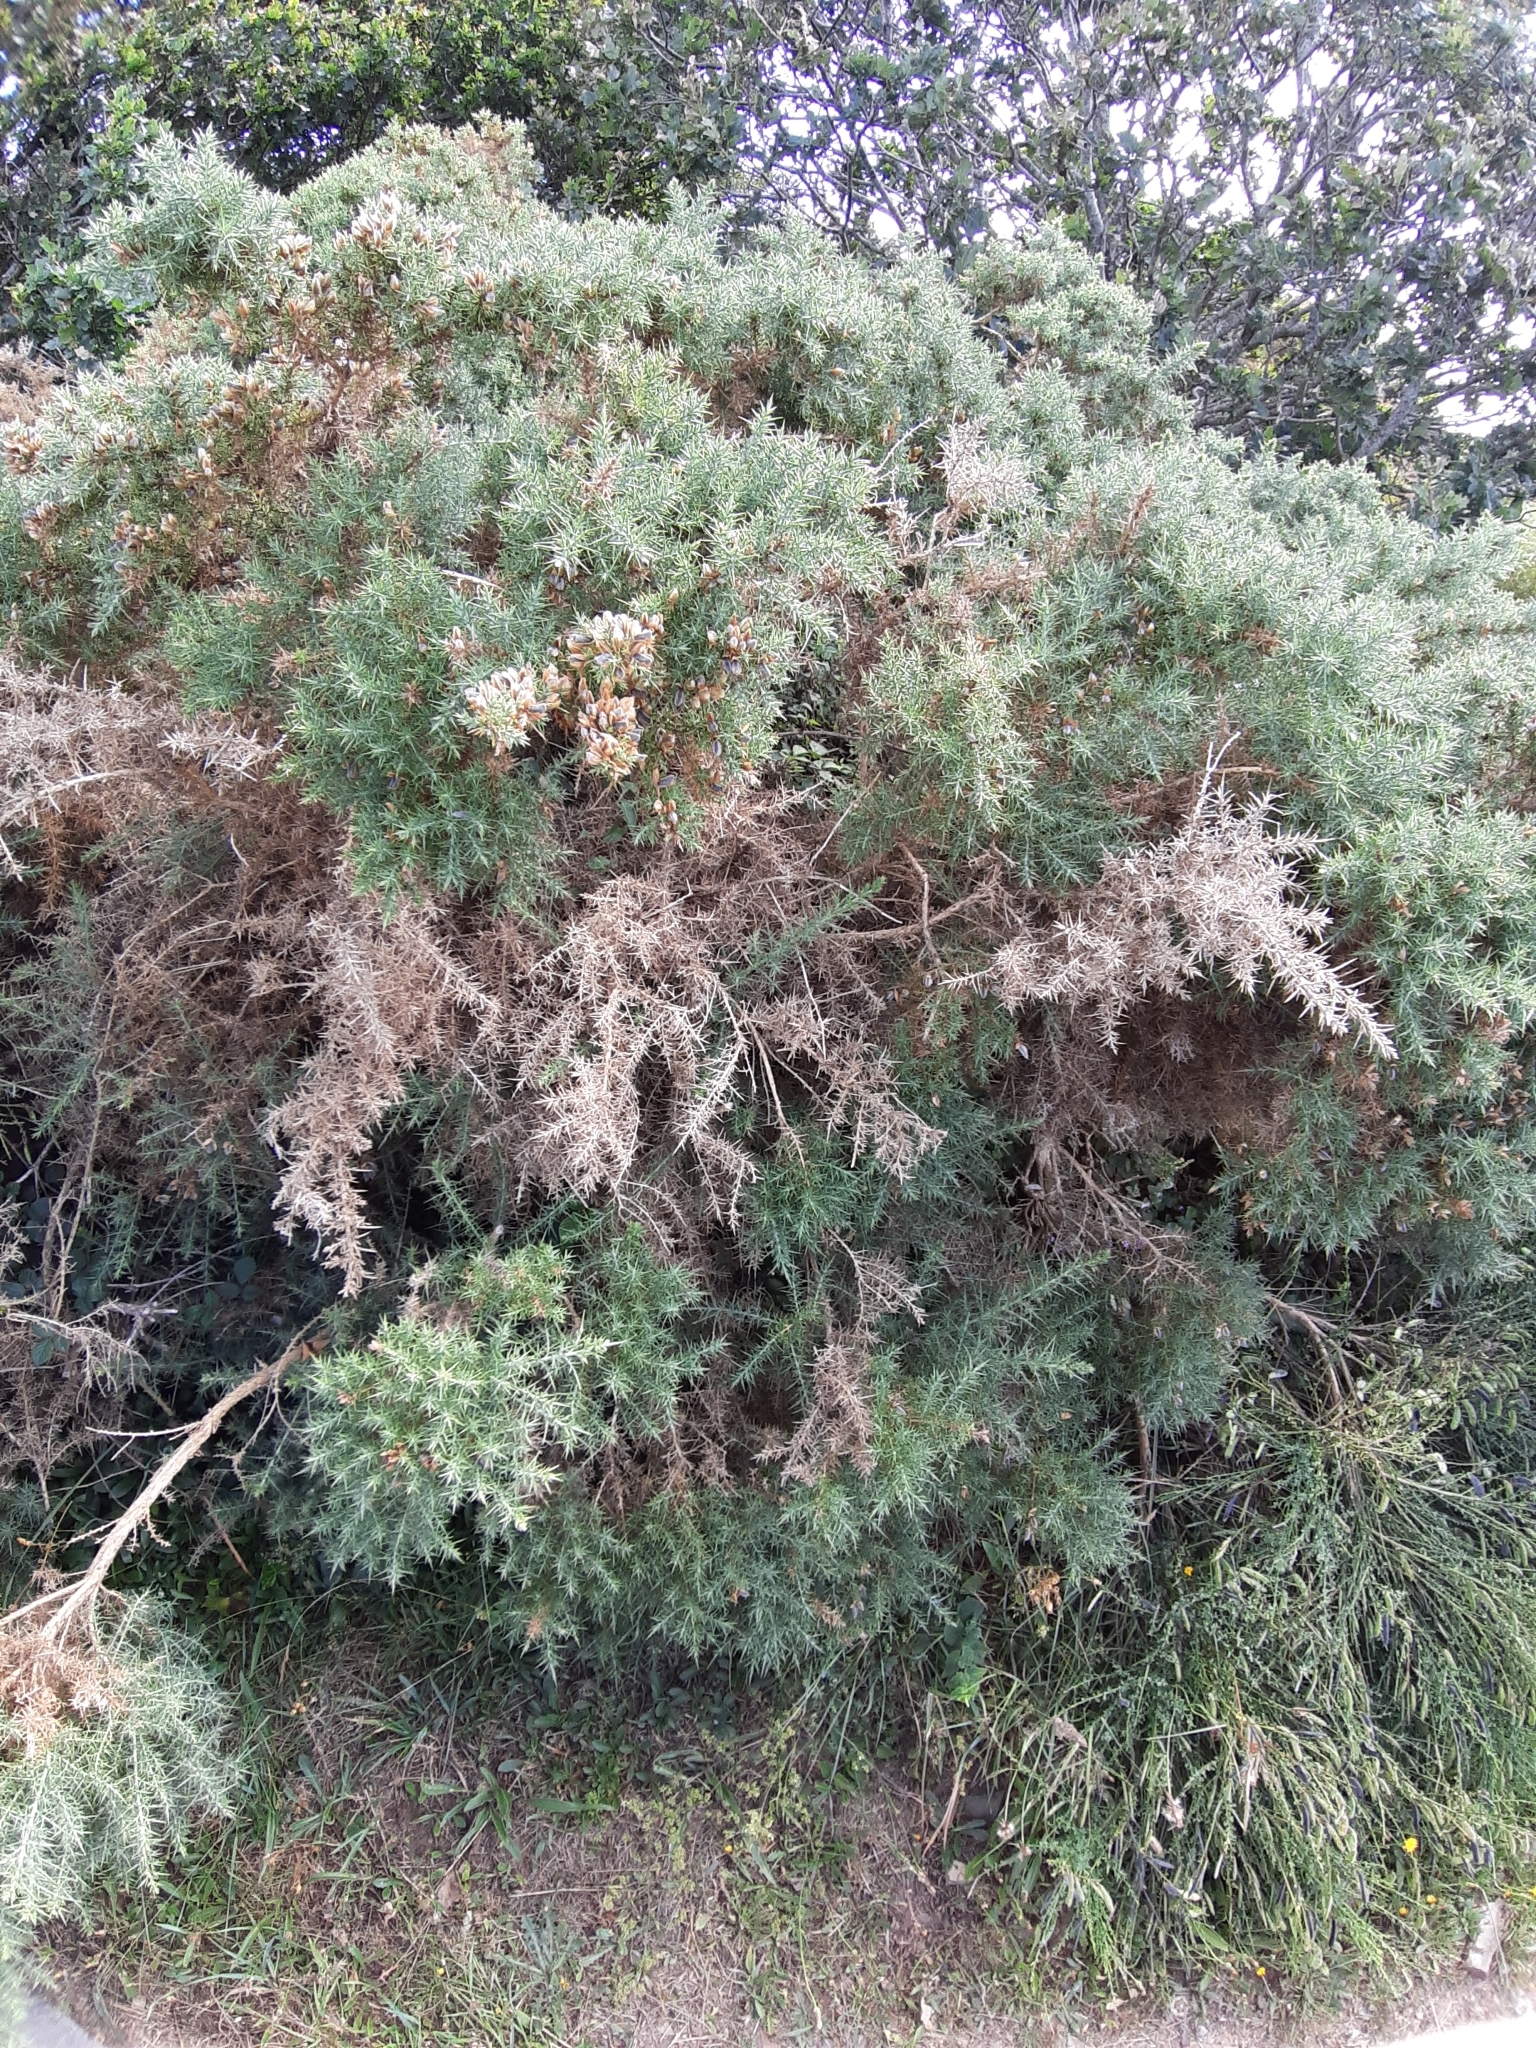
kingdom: Plantae
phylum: Tracheophyta
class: Magnoliopsida
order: Fabales
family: Fabaceae
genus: Ulex
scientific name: Ulex europaeus
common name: Common gorse
